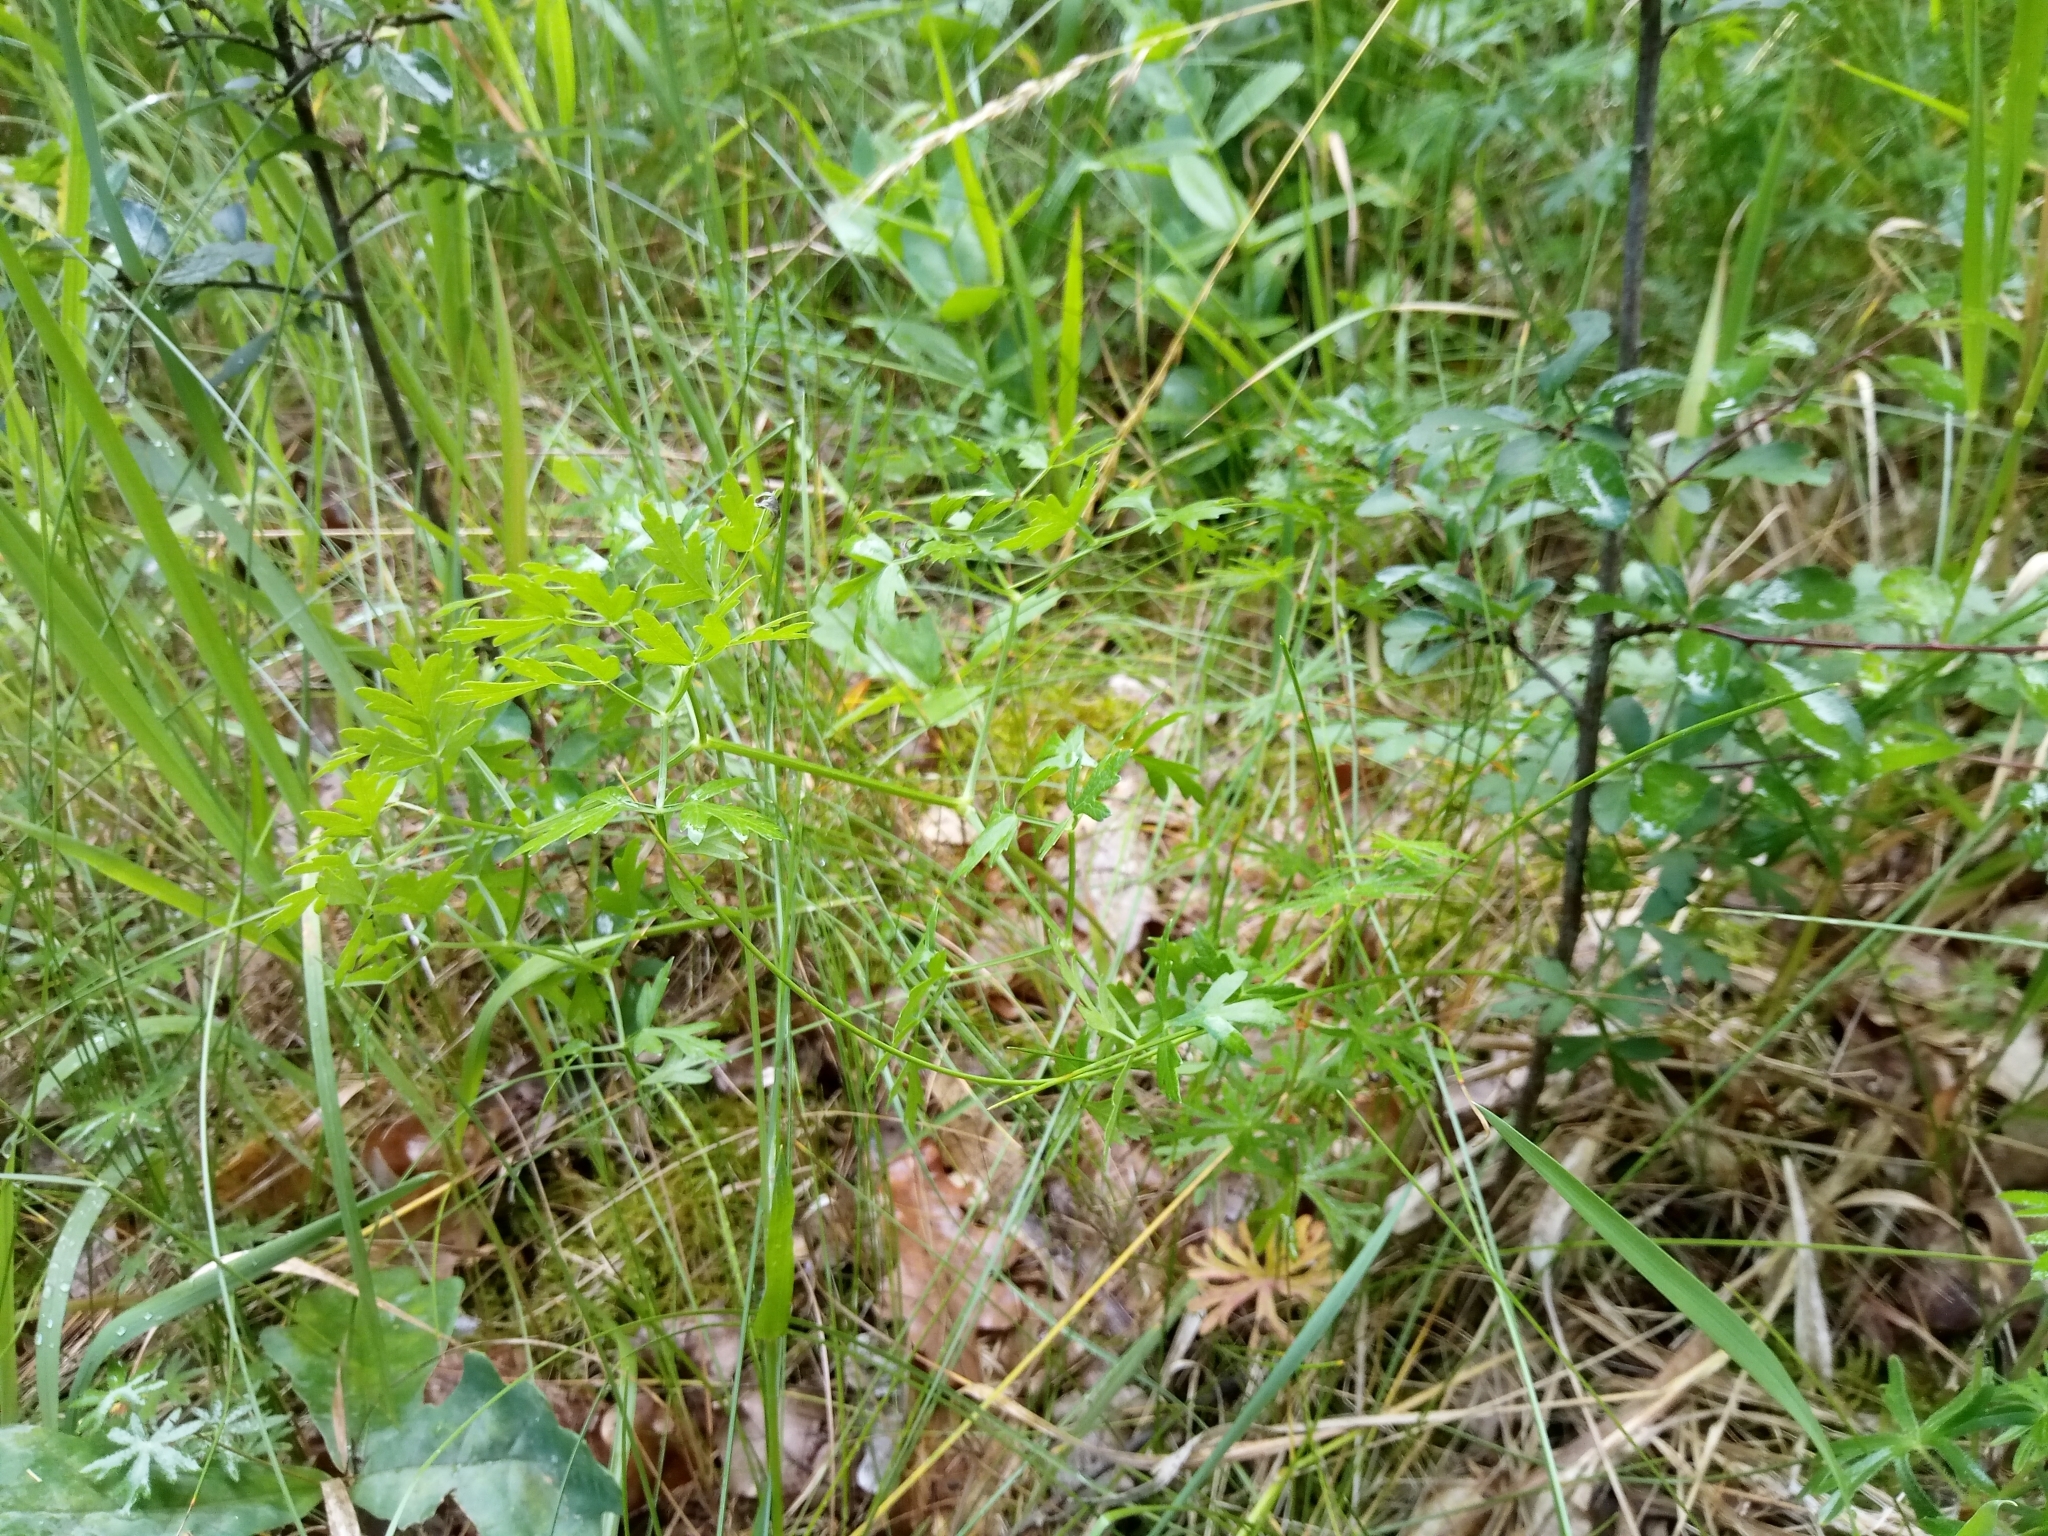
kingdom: Plantae
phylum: Tracheophyta
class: Magnoliopsida
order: Apiales
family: Apiaceae
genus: Oreoselinum
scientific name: Oreoselinum nigrum
